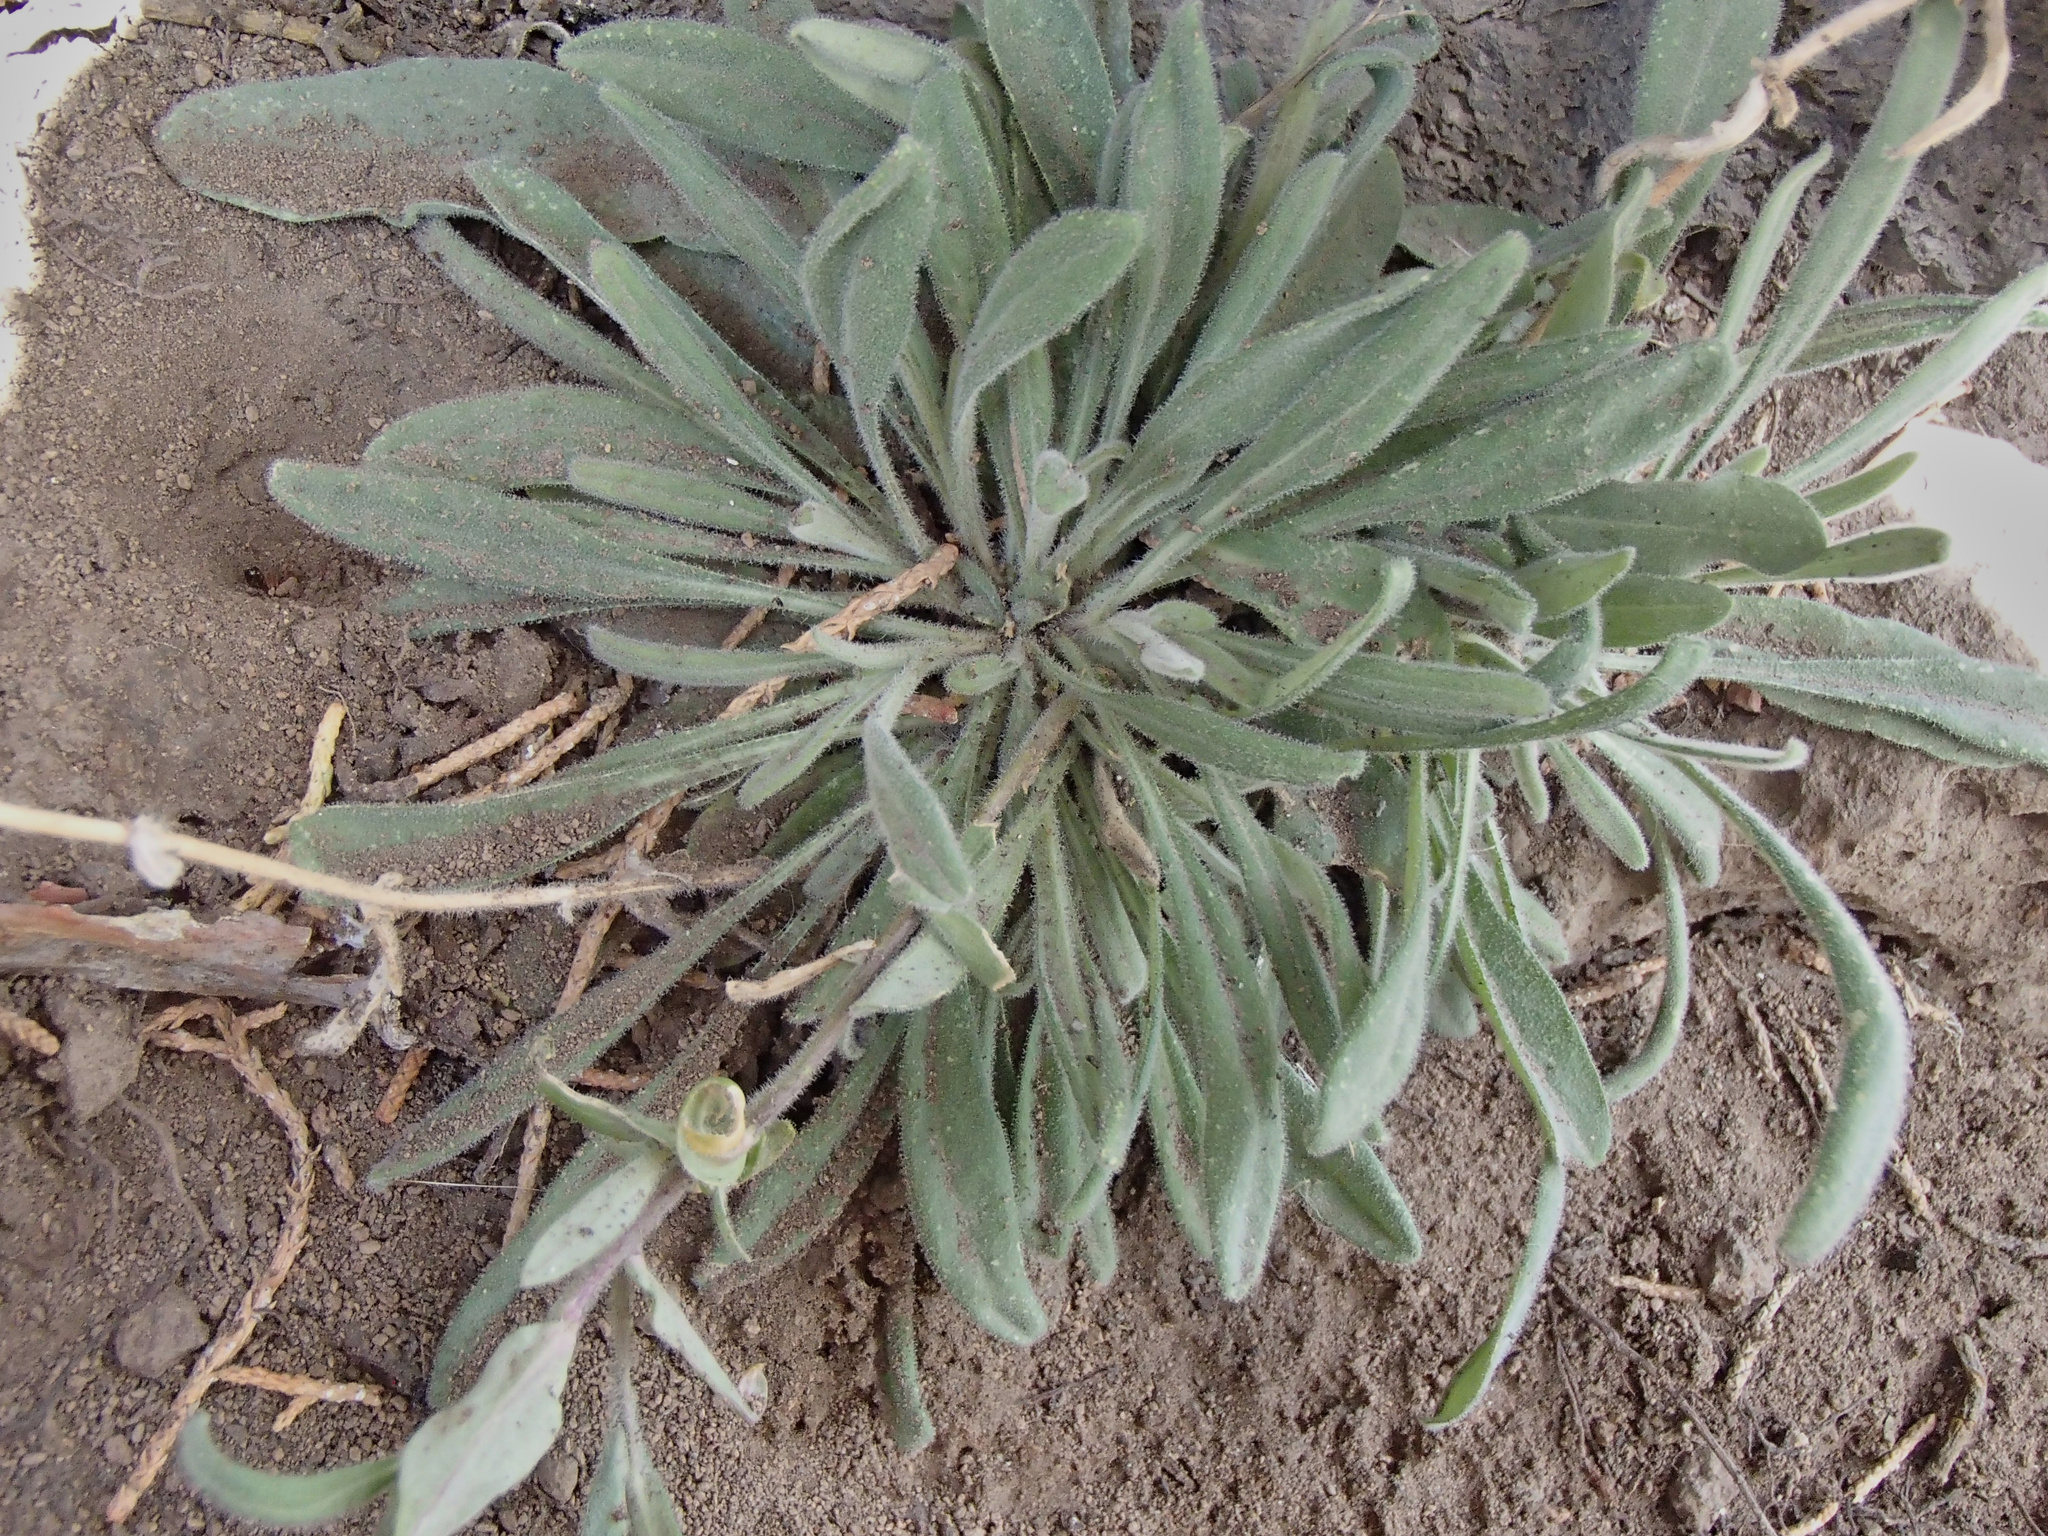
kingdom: Plantae
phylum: Tracheophyta
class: Magnoliopsida
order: Brassicales
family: Brassicaceae
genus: Boechera
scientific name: Boechera sparsiflora
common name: Elegant rockcress
